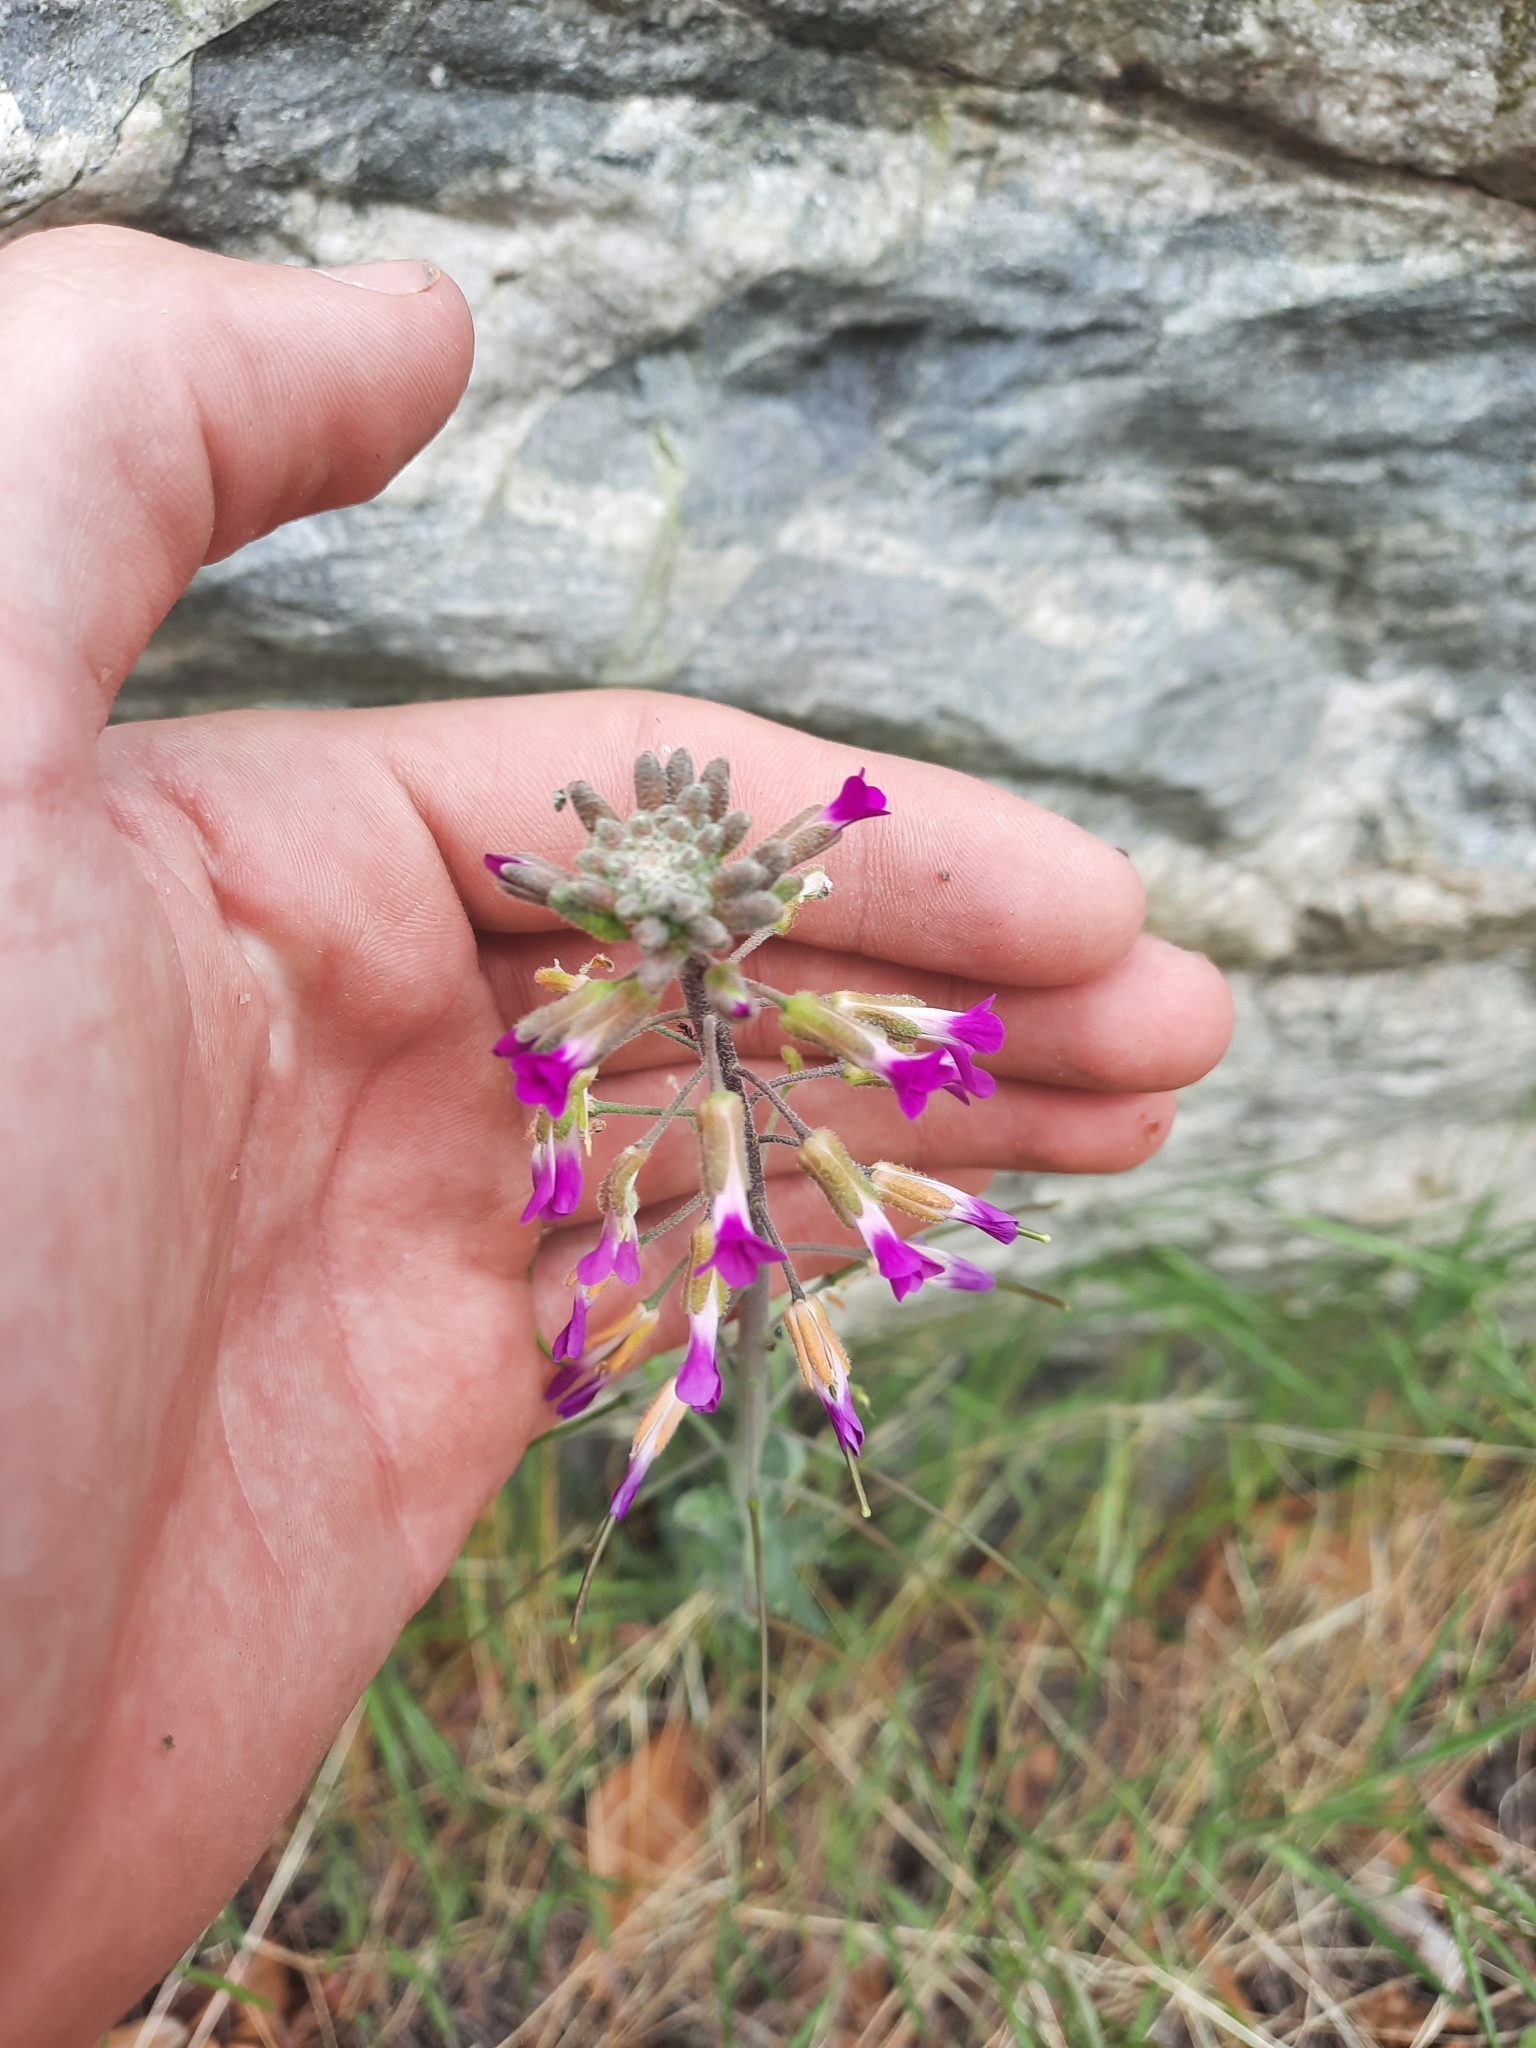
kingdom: Plantae
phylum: Tracheophyta
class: Magnoliopsida
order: Brassicales
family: Brassicaceae
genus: Boechera
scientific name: Boechera californica
